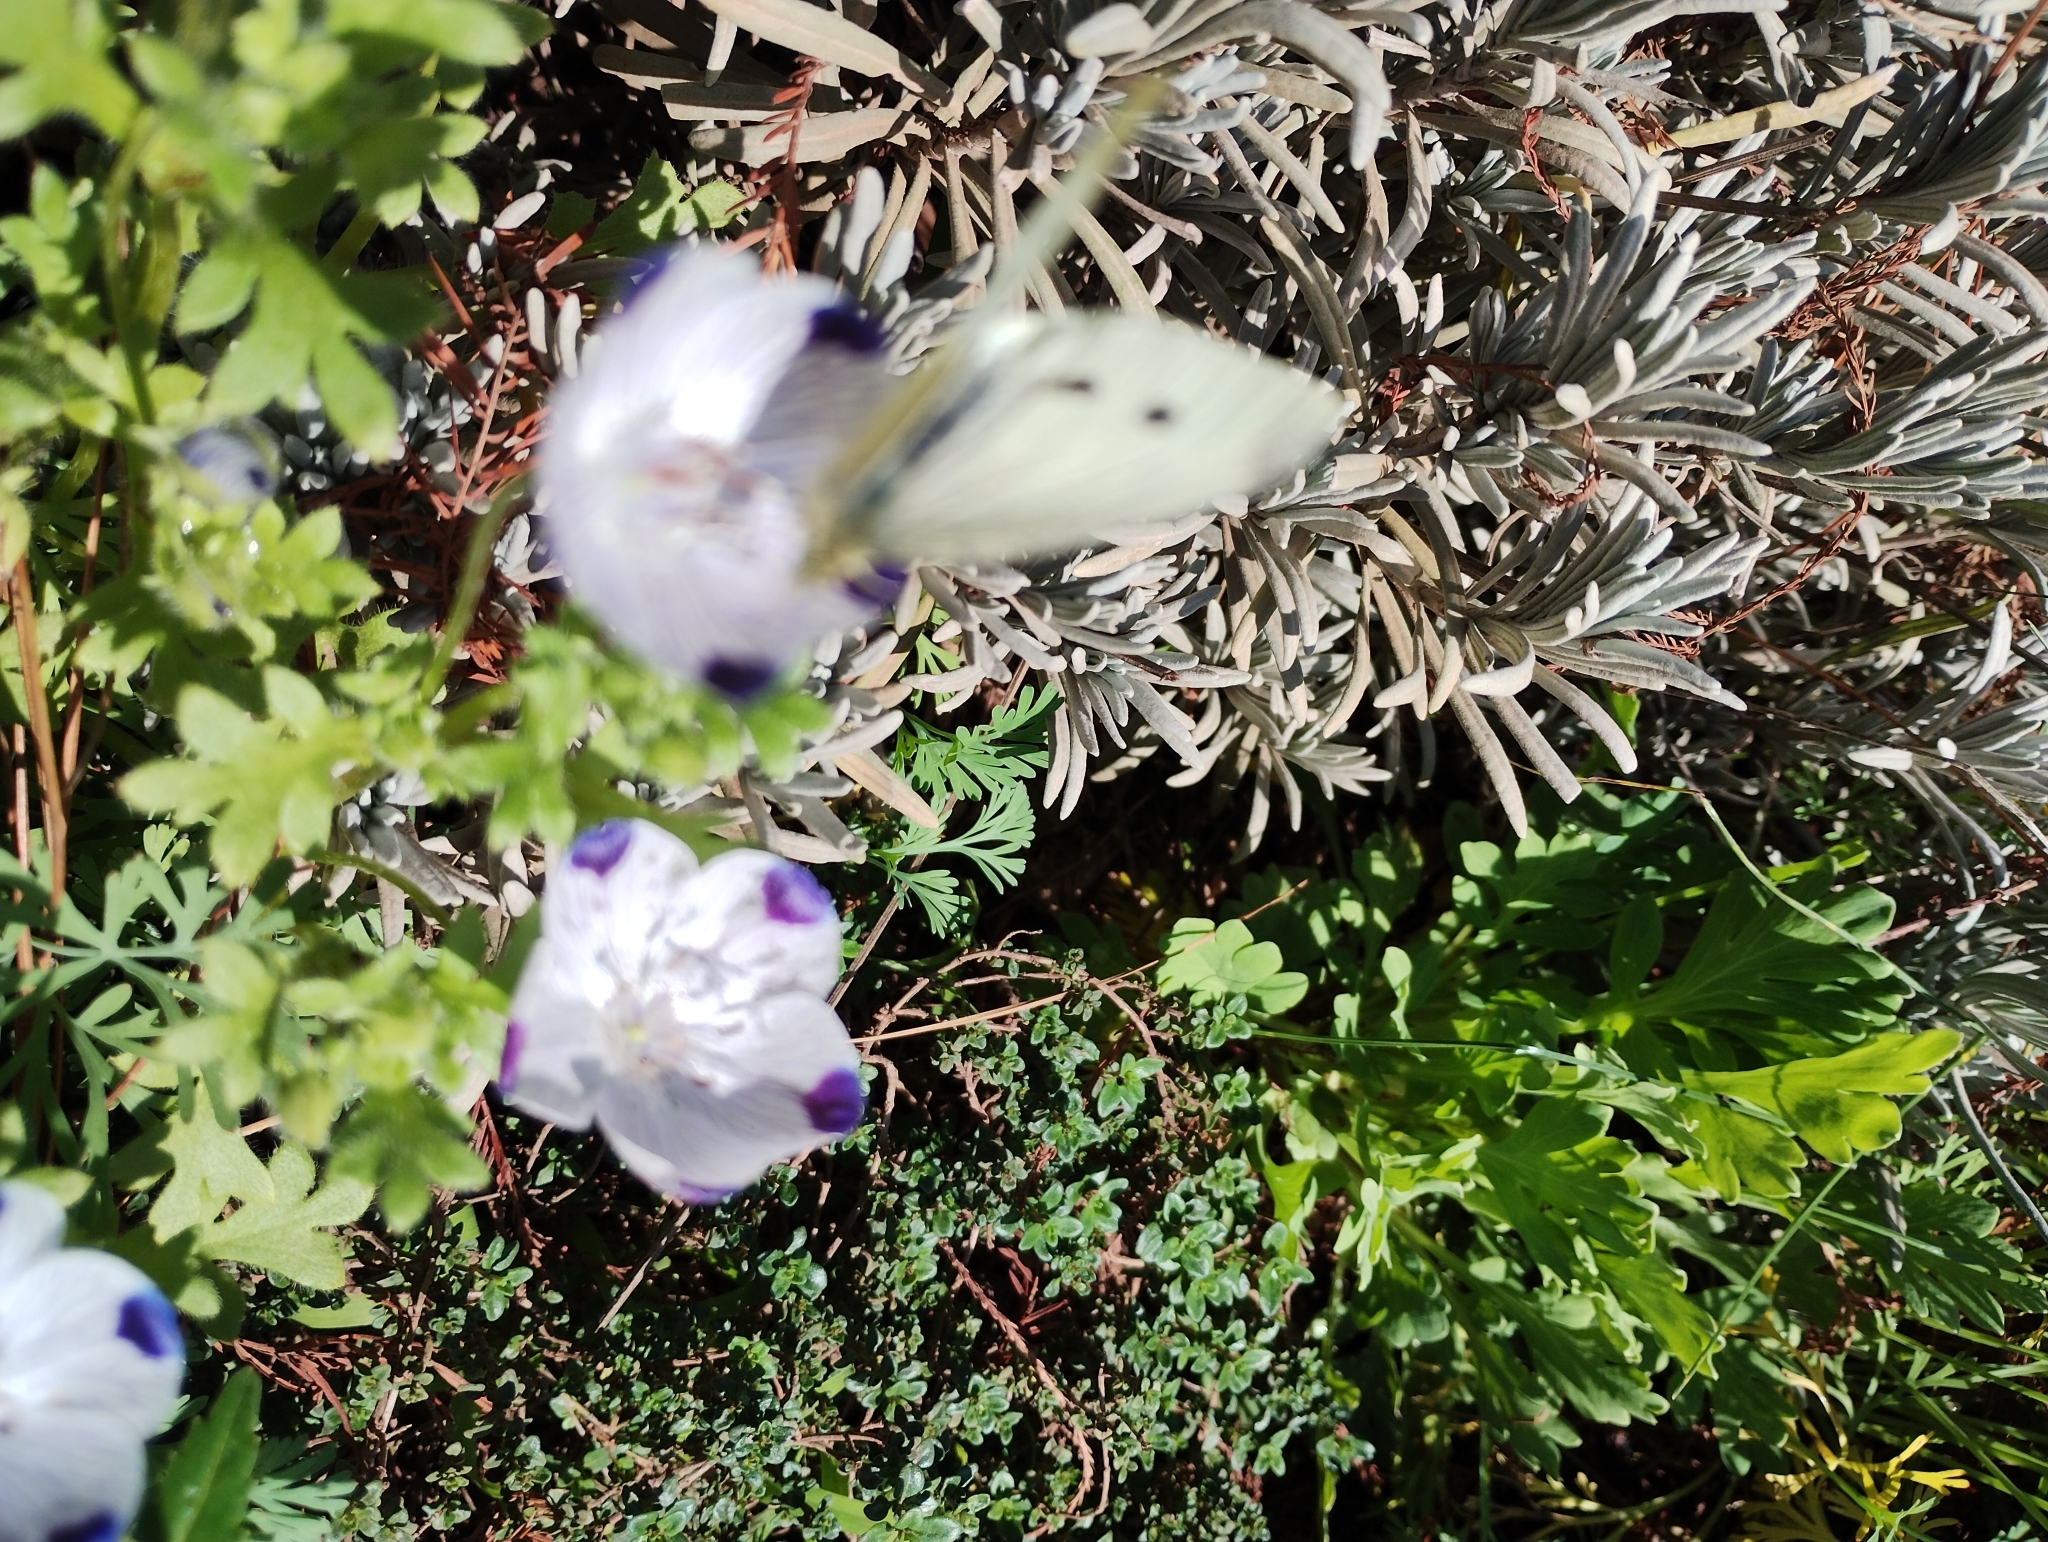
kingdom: Animalia
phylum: Arthropoda
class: Insecta
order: Lepidoptera
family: Pieridae
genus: Pieris
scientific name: Pieris rapae
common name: Small white
